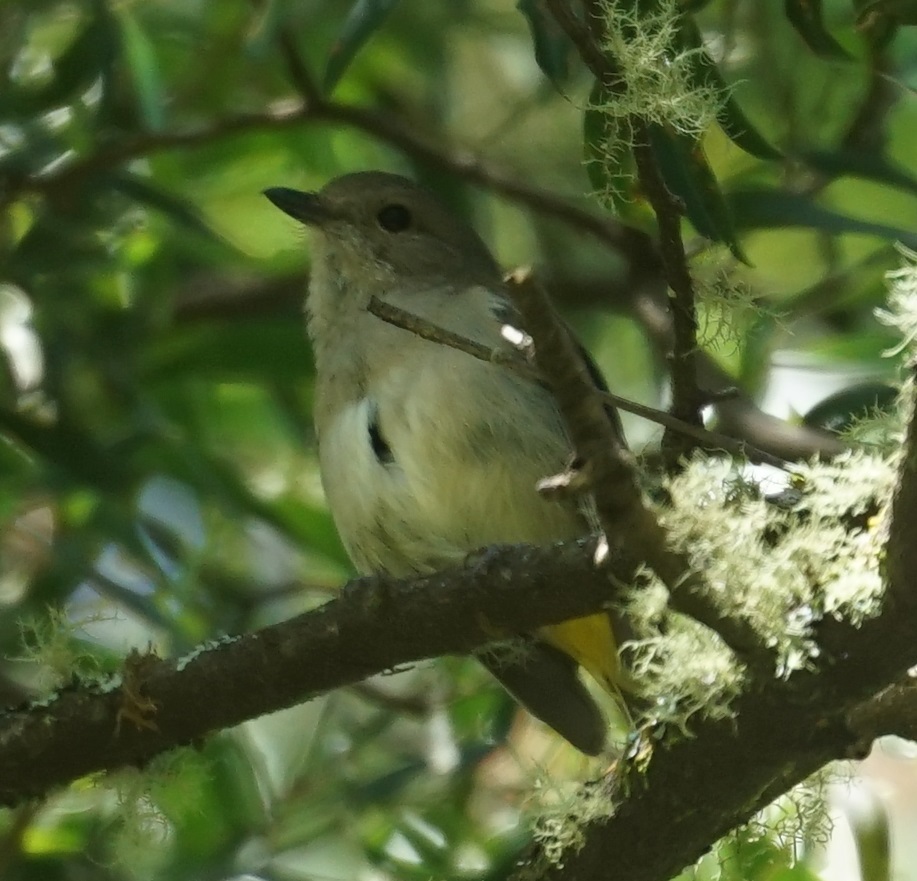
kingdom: Animalia
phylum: Chordata
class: Aves
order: Passeriformes
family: Pachycephalidae
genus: Pachycephala
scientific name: Pachycephala pectoralis
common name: Australian golden whistler
